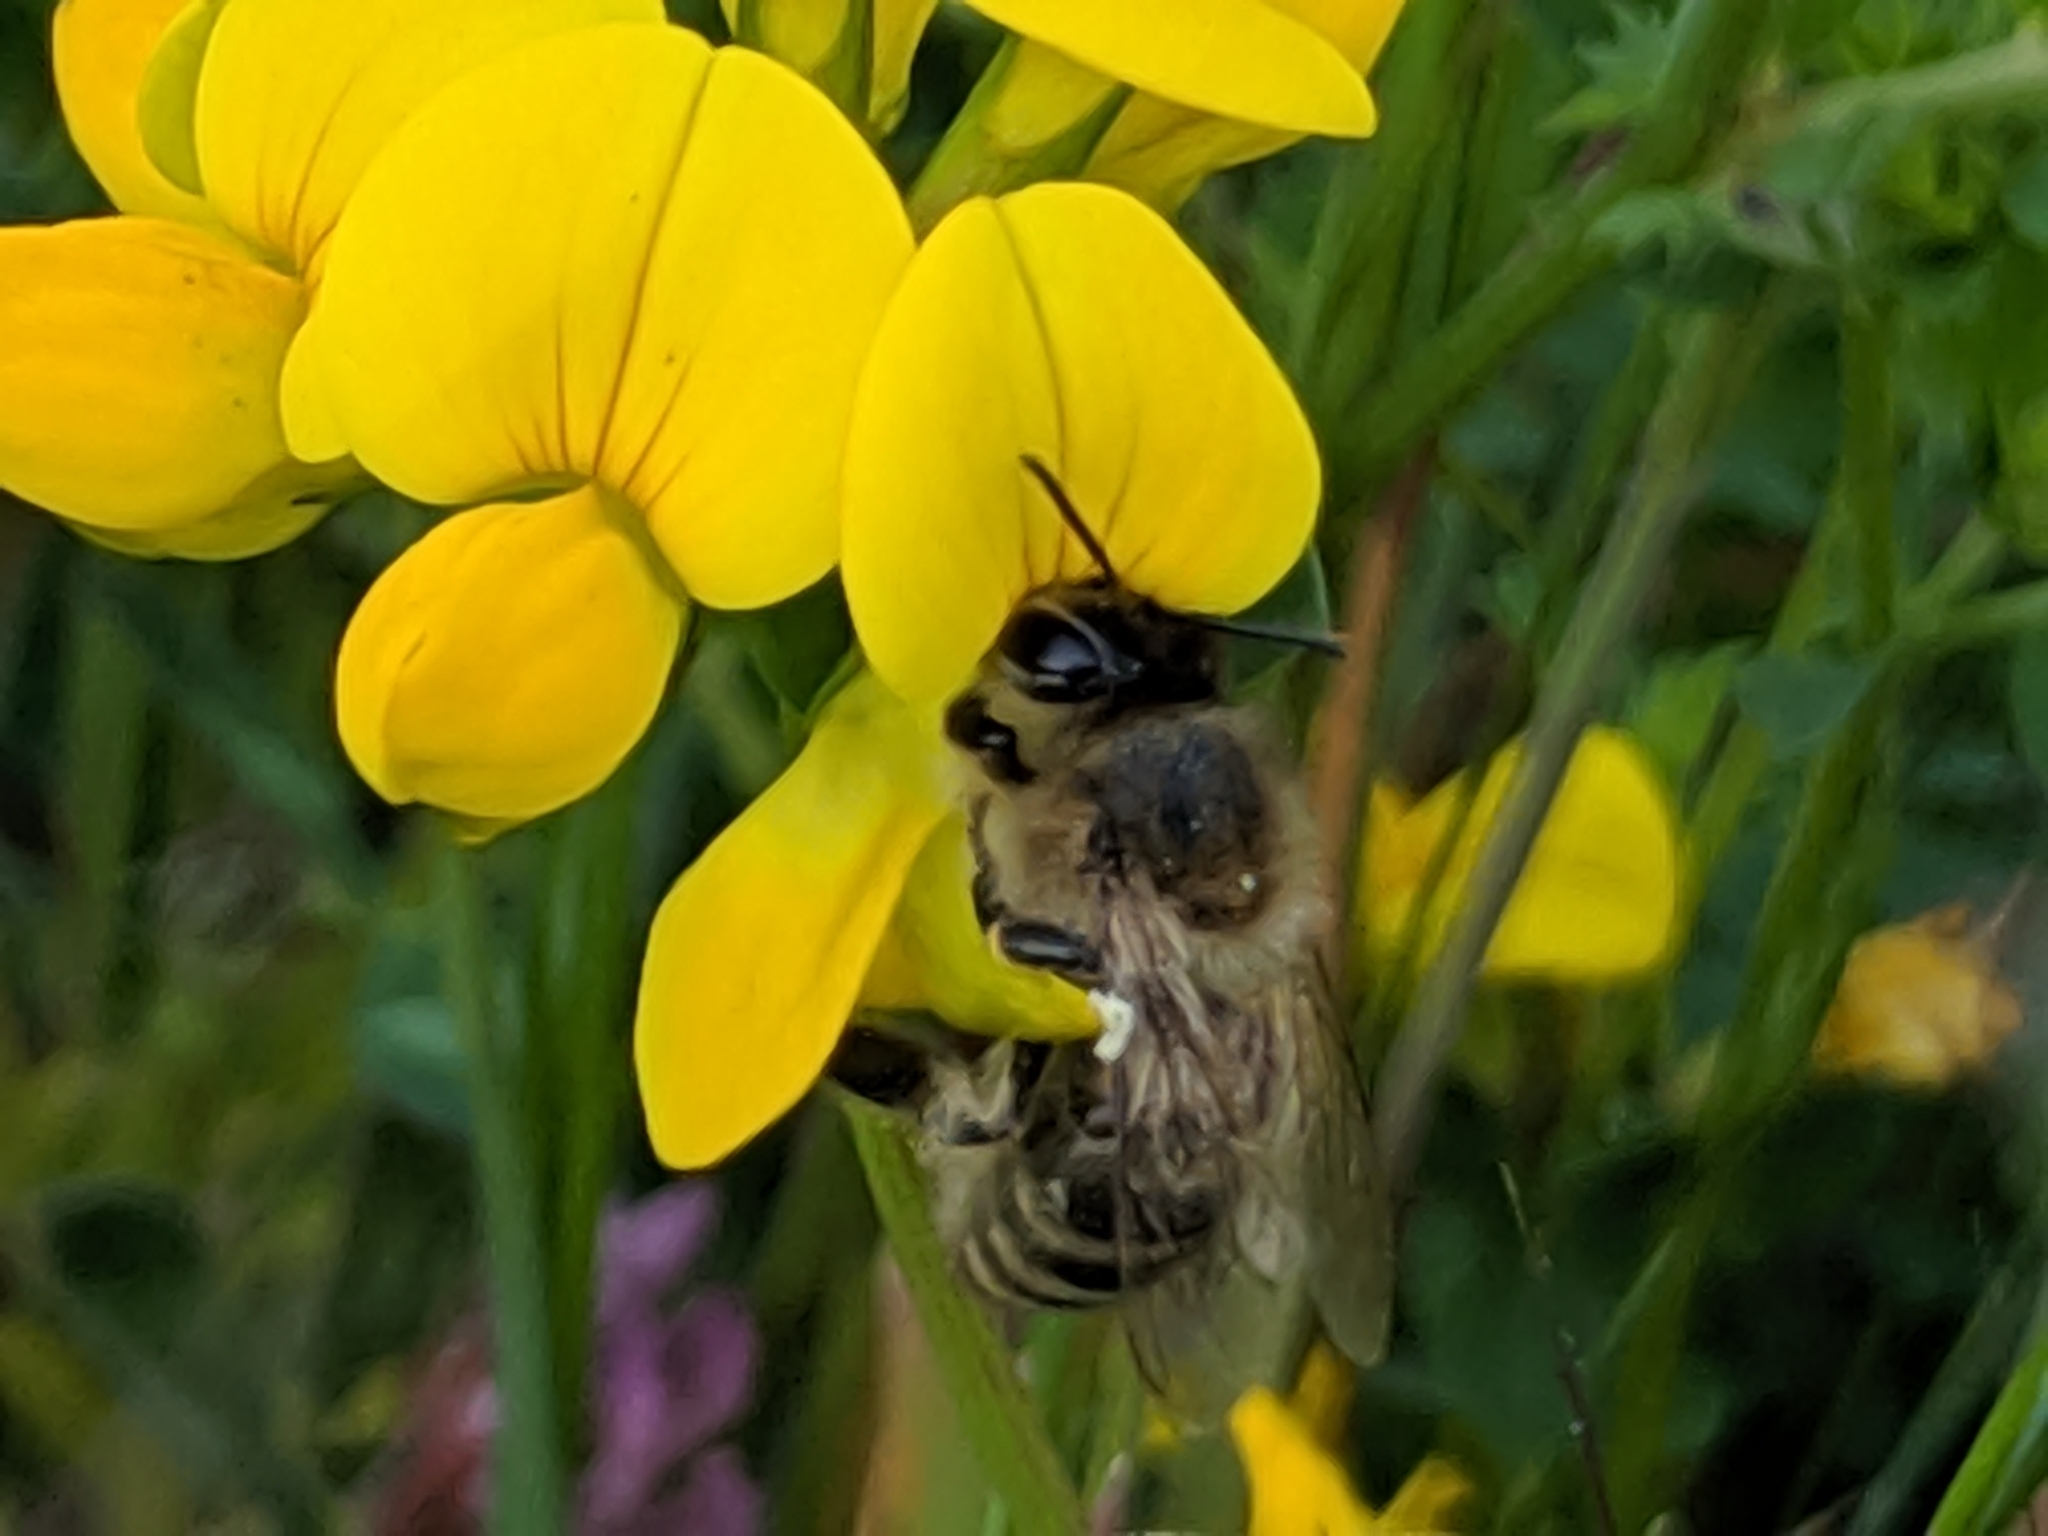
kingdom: Animalia
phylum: Arthropoda
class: Insecta
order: Hymenoptera
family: Apidae
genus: Apis
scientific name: Apis mellifera
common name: Honey bee
